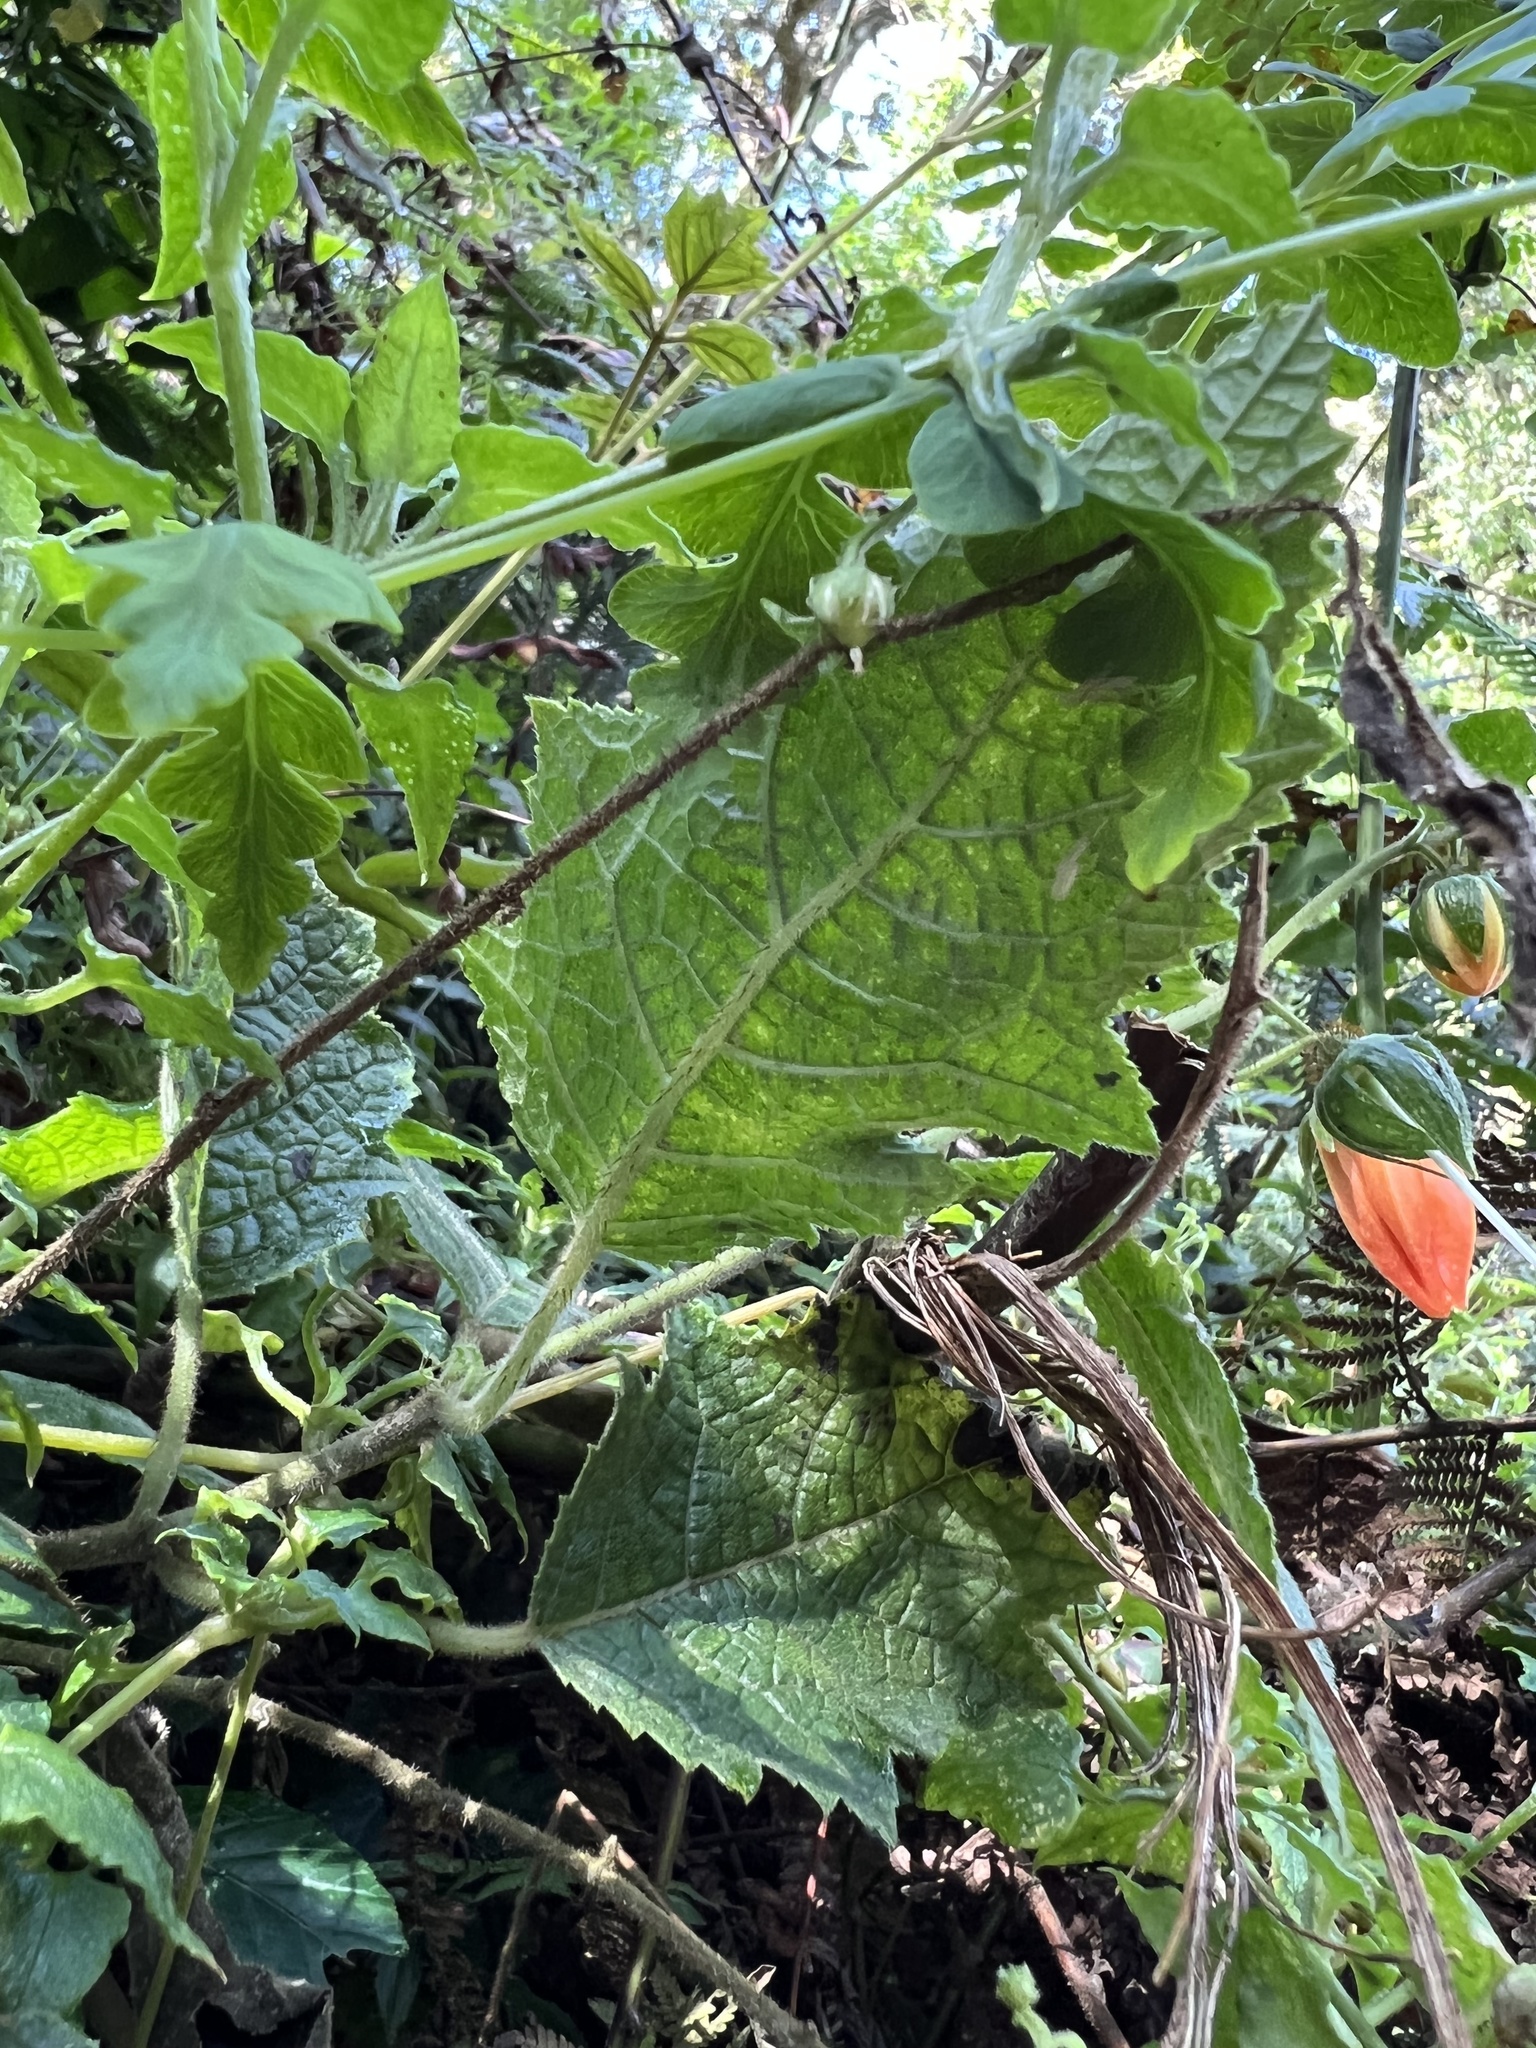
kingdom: Plantae
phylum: Tracheophyta
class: Magnoliopsida
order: Cornales
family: Loasaceae
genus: Nasa
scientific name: Nasa campaniflora
